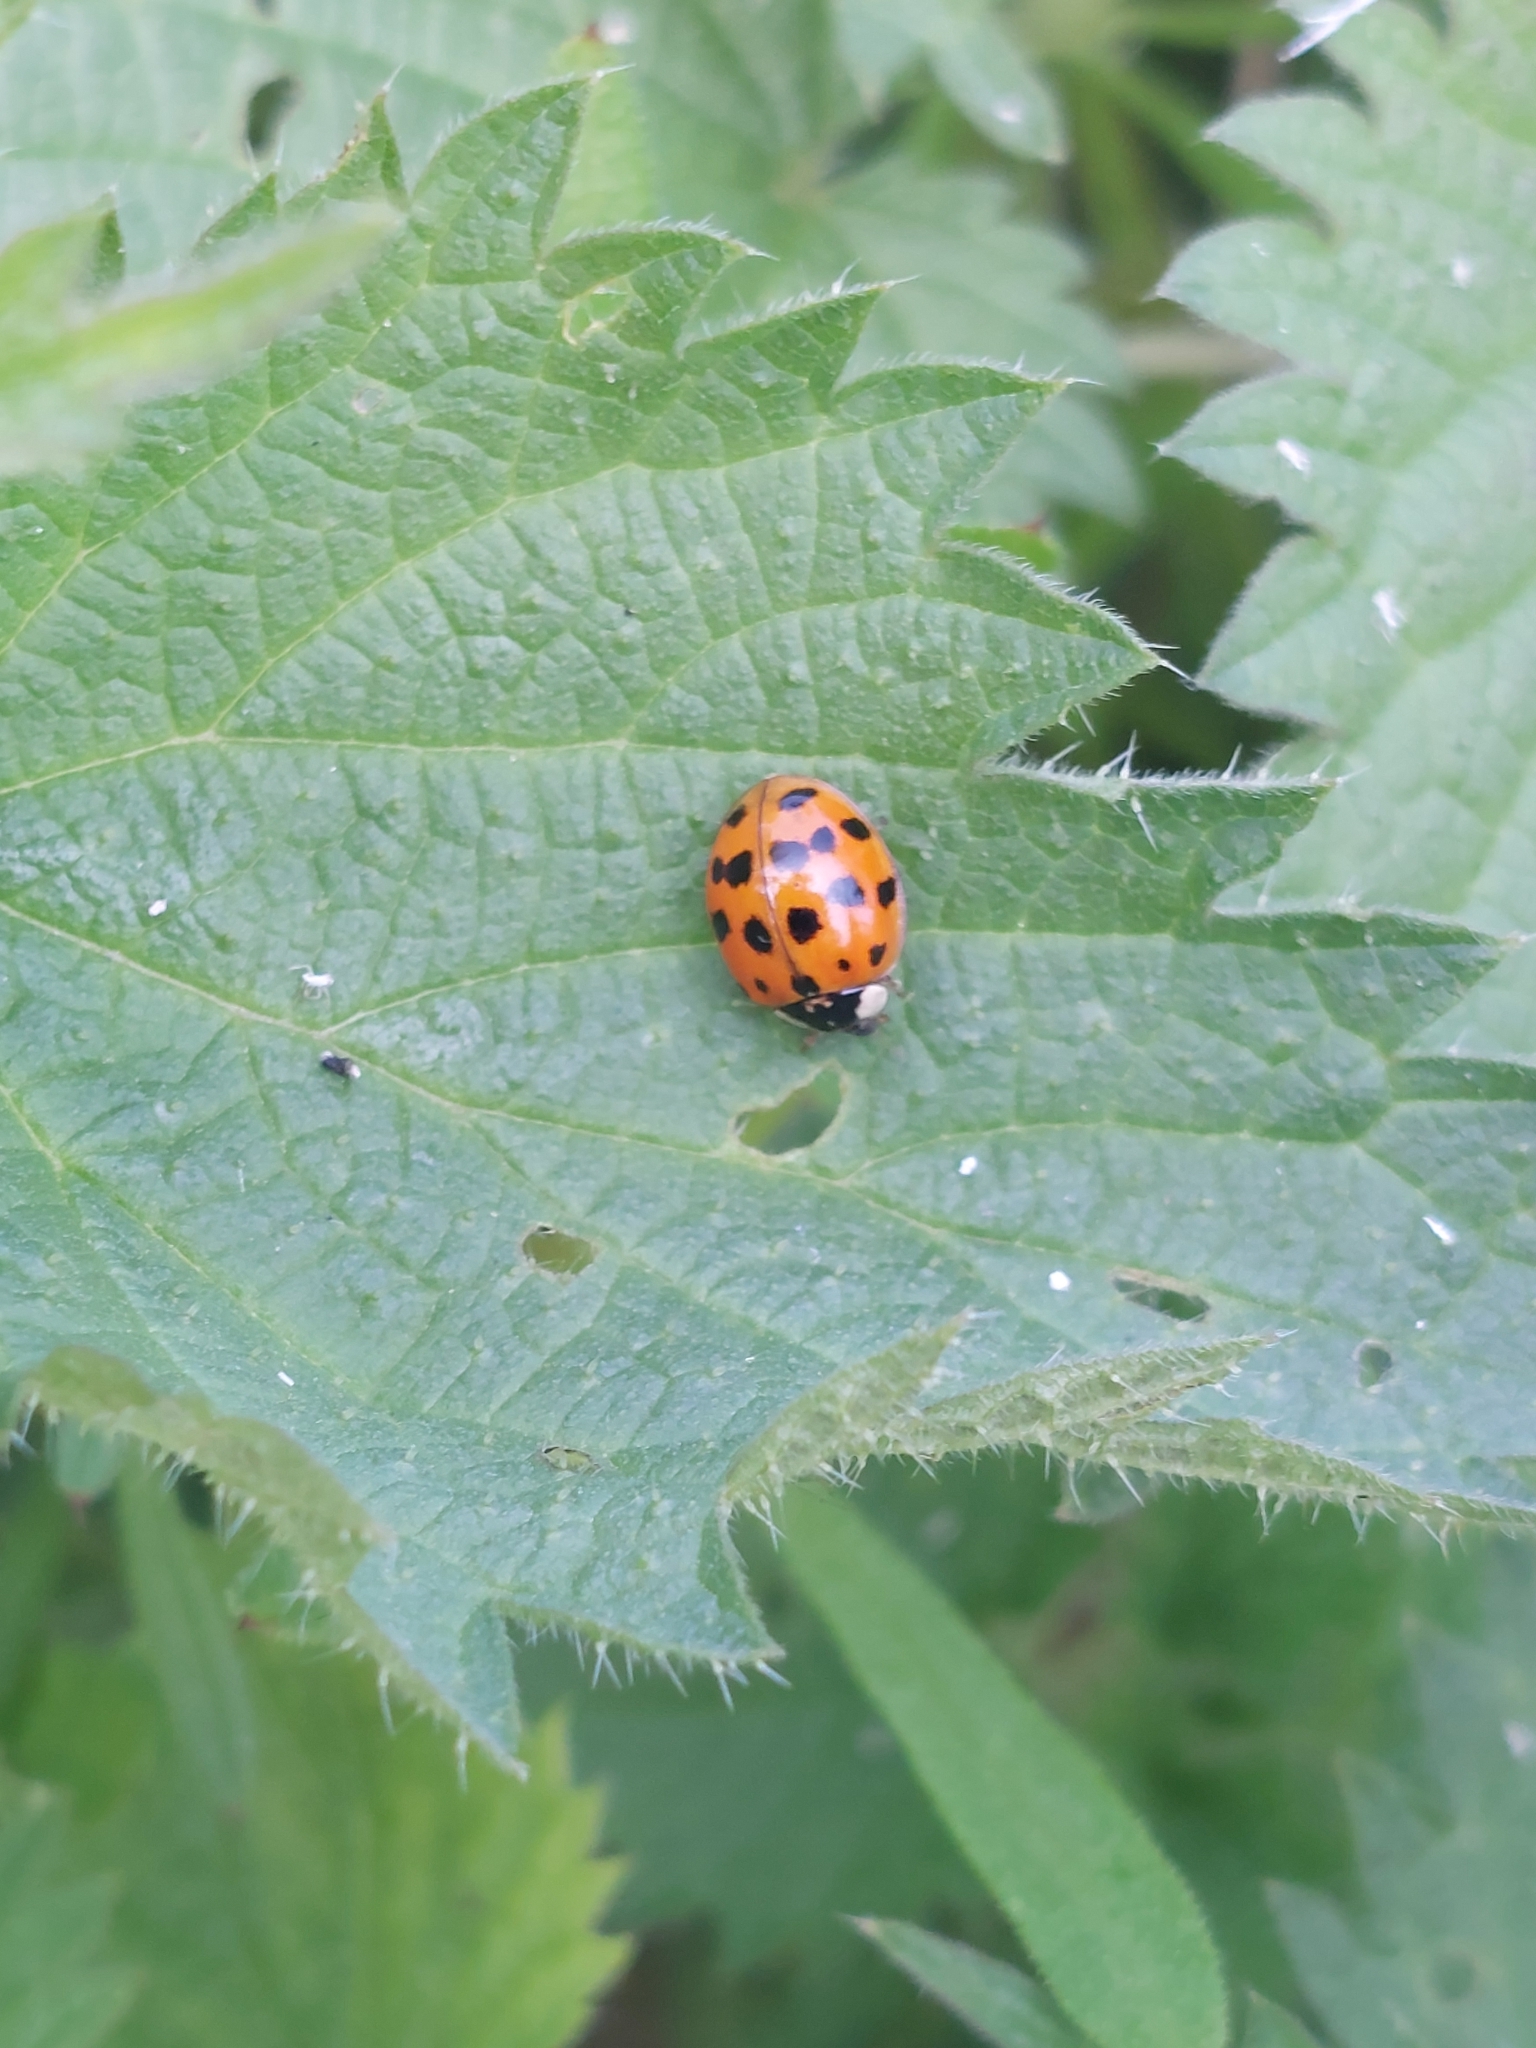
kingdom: Animalia
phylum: Arthropoda
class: Insecta
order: Coleoptera
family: Coccinellidae
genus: Harmonia
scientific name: Harmonia axyridis
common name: Harlequin ladybird
